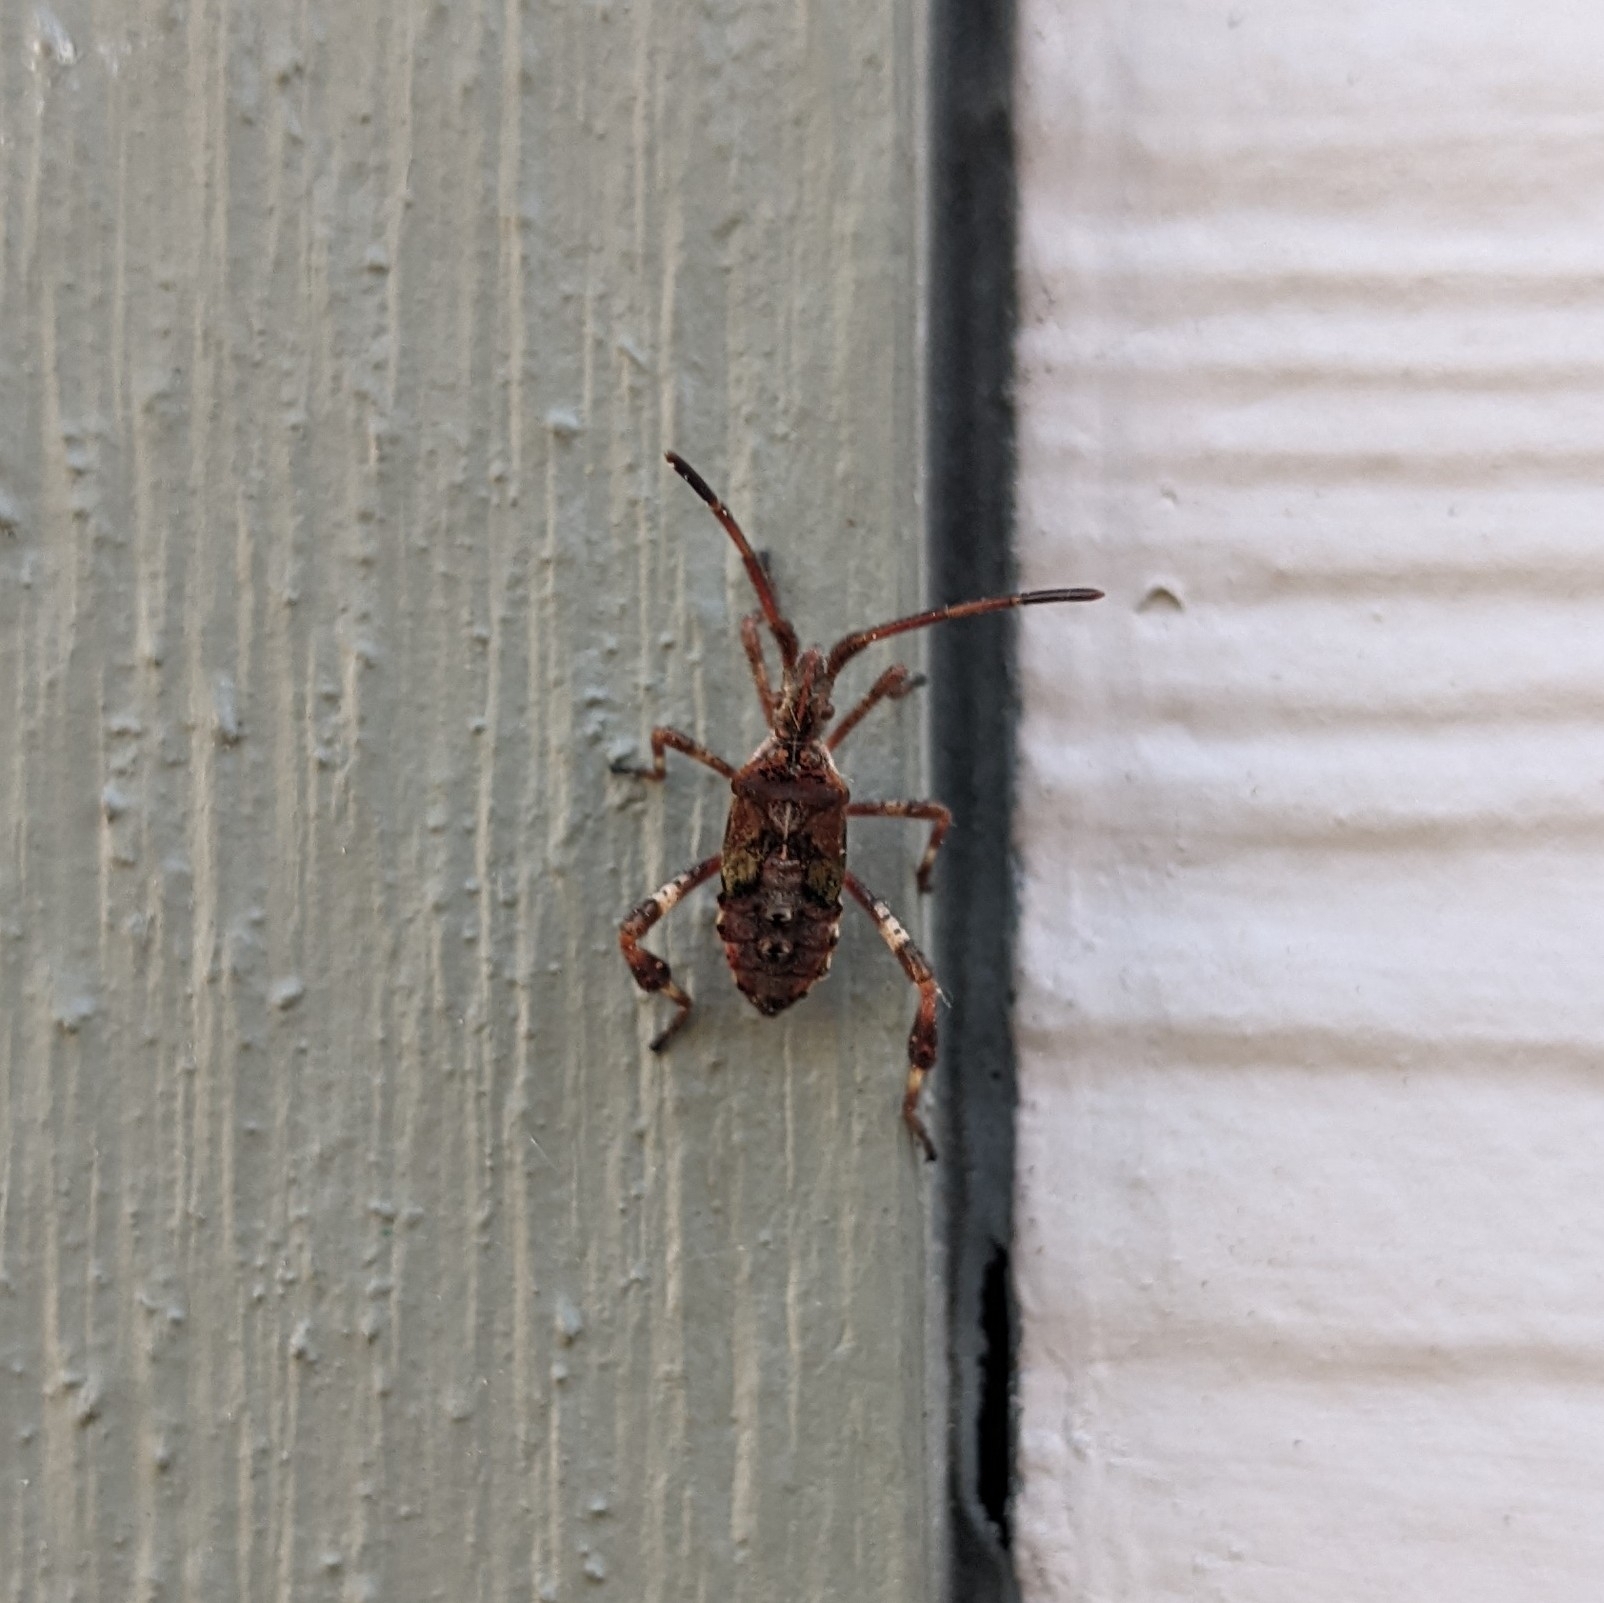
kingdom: Animalia
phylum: Arthropoda
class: Insecta
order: Hemiptera
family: Coreidae
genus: Leptoglossus
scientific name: Leptoglossus occidentalis
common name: Western conifer-seed bug
